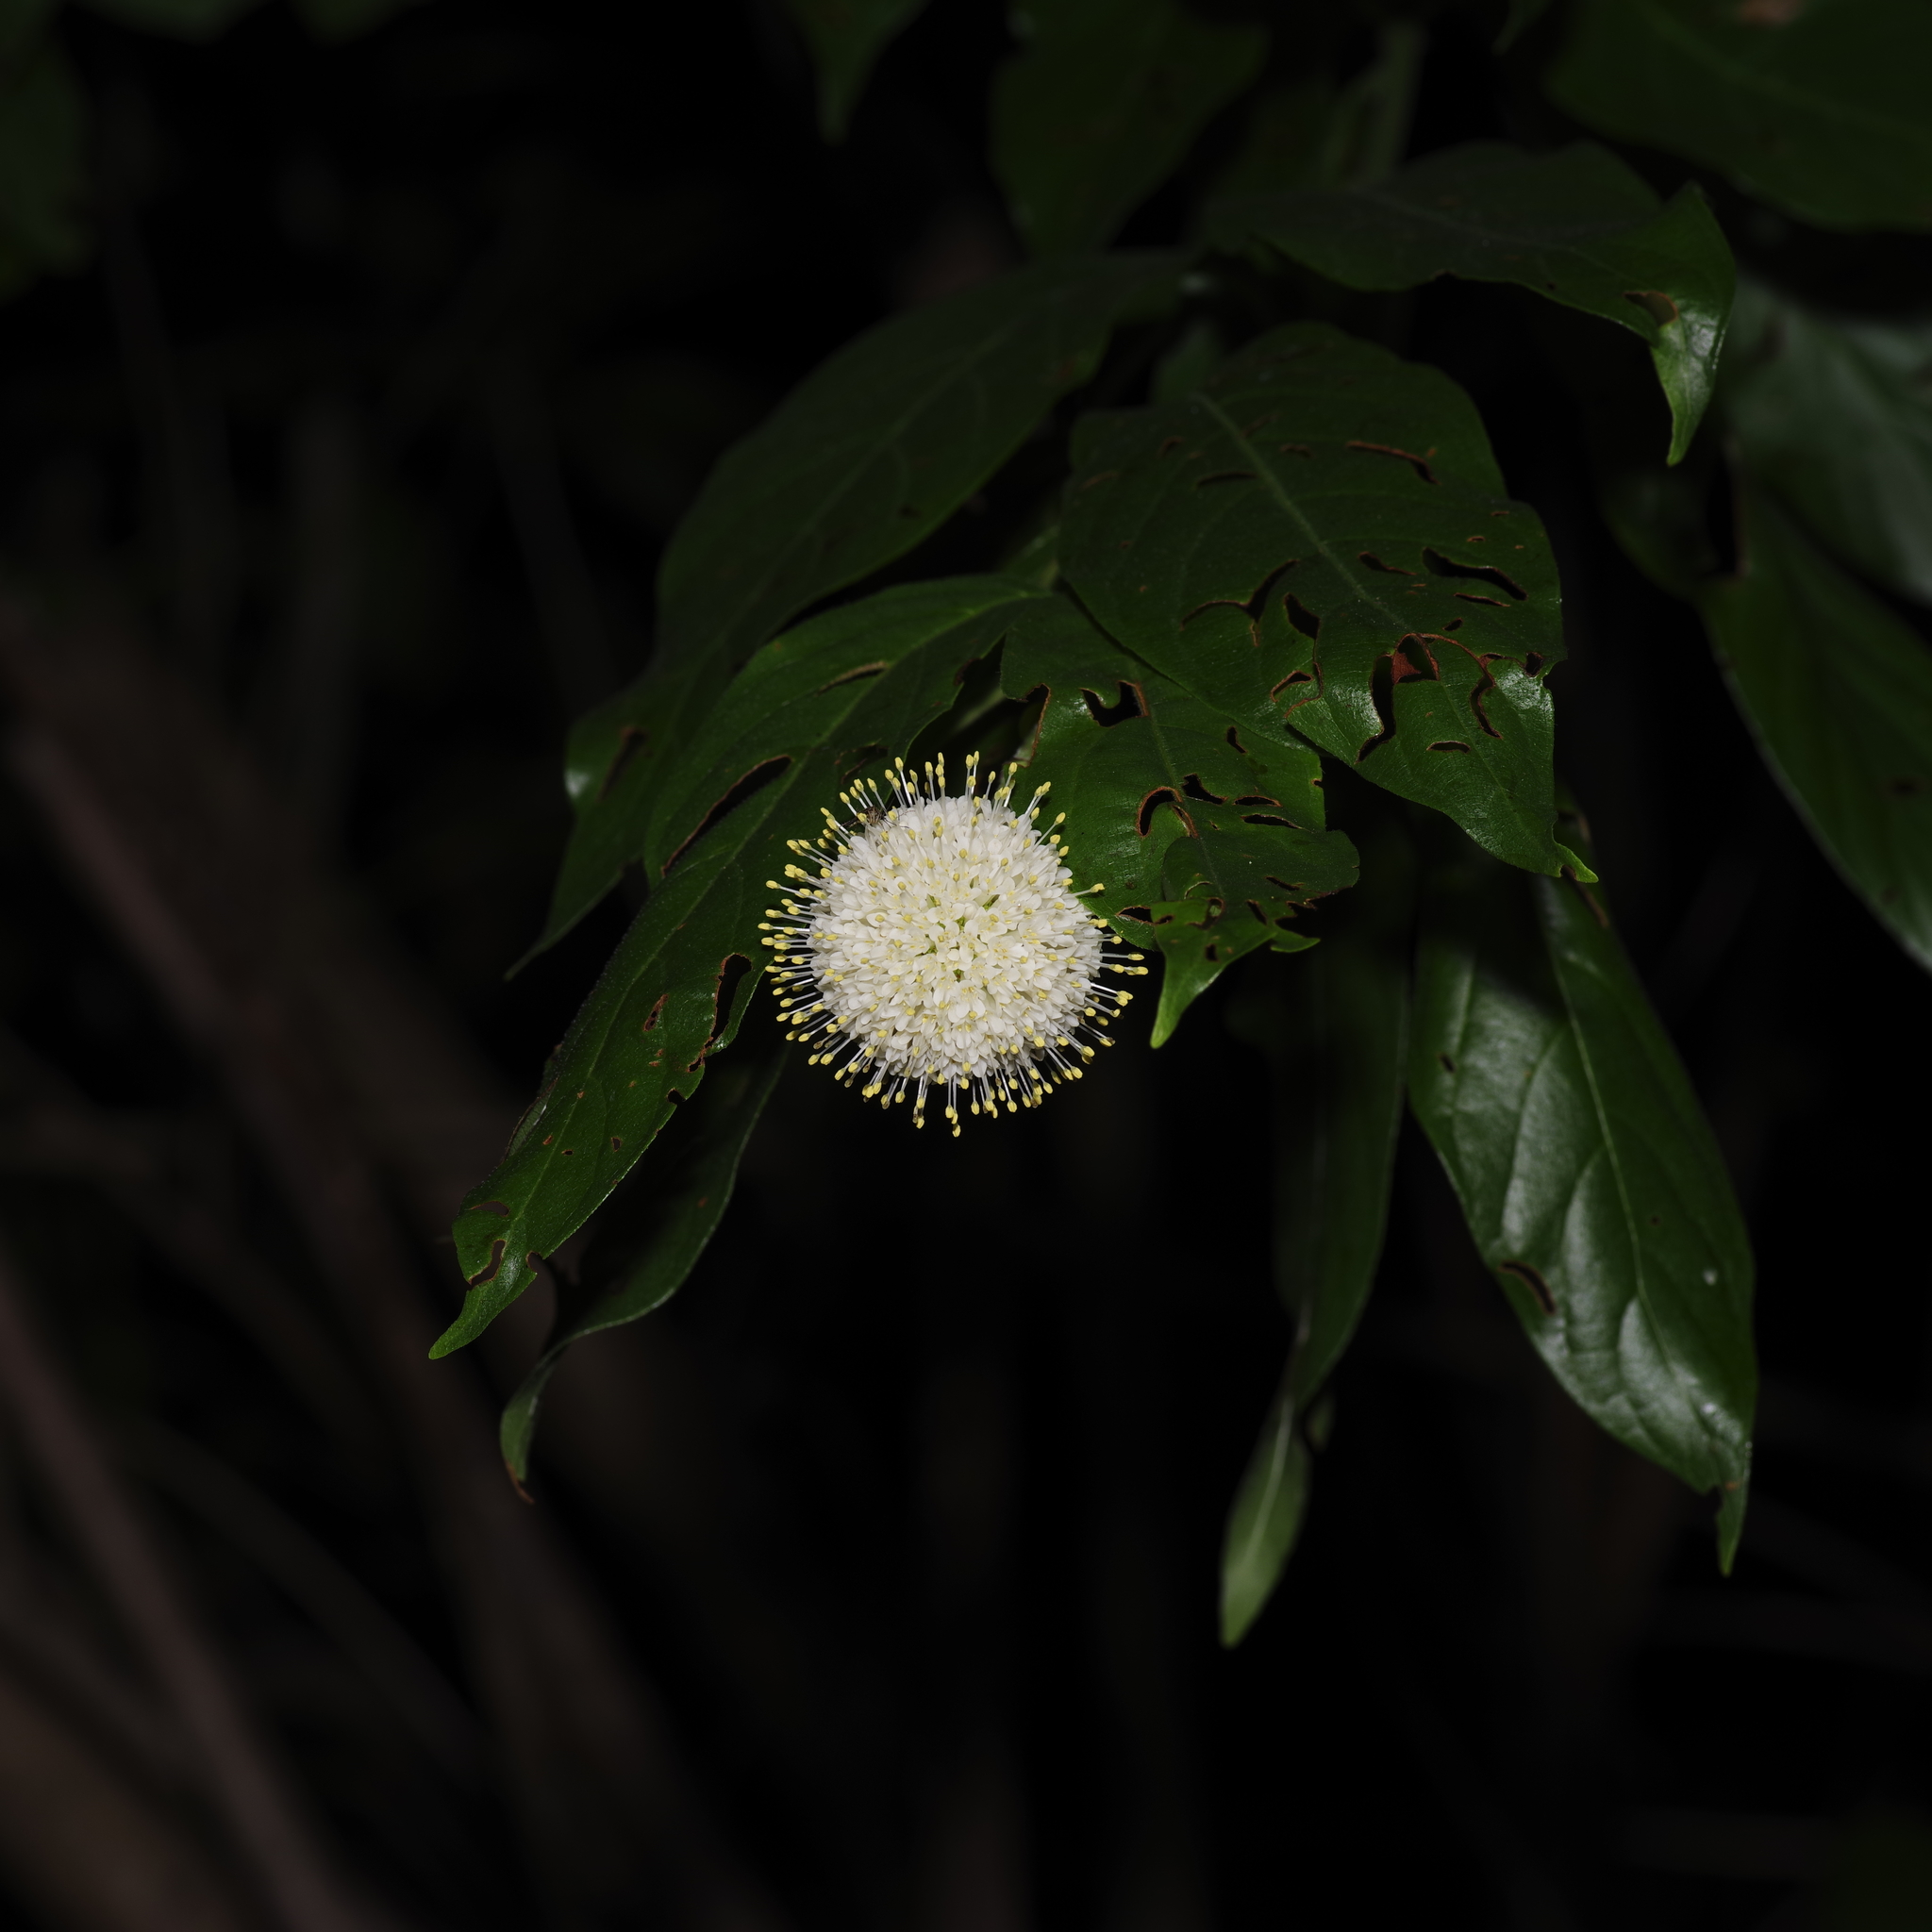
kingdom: Plantae
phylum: Tracheophyta
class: Magnoliopsida
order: Gentianales
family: Rubiaceae
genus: Cephalanthus
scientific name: Cephalanthus occidentalis
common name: Button-willow
